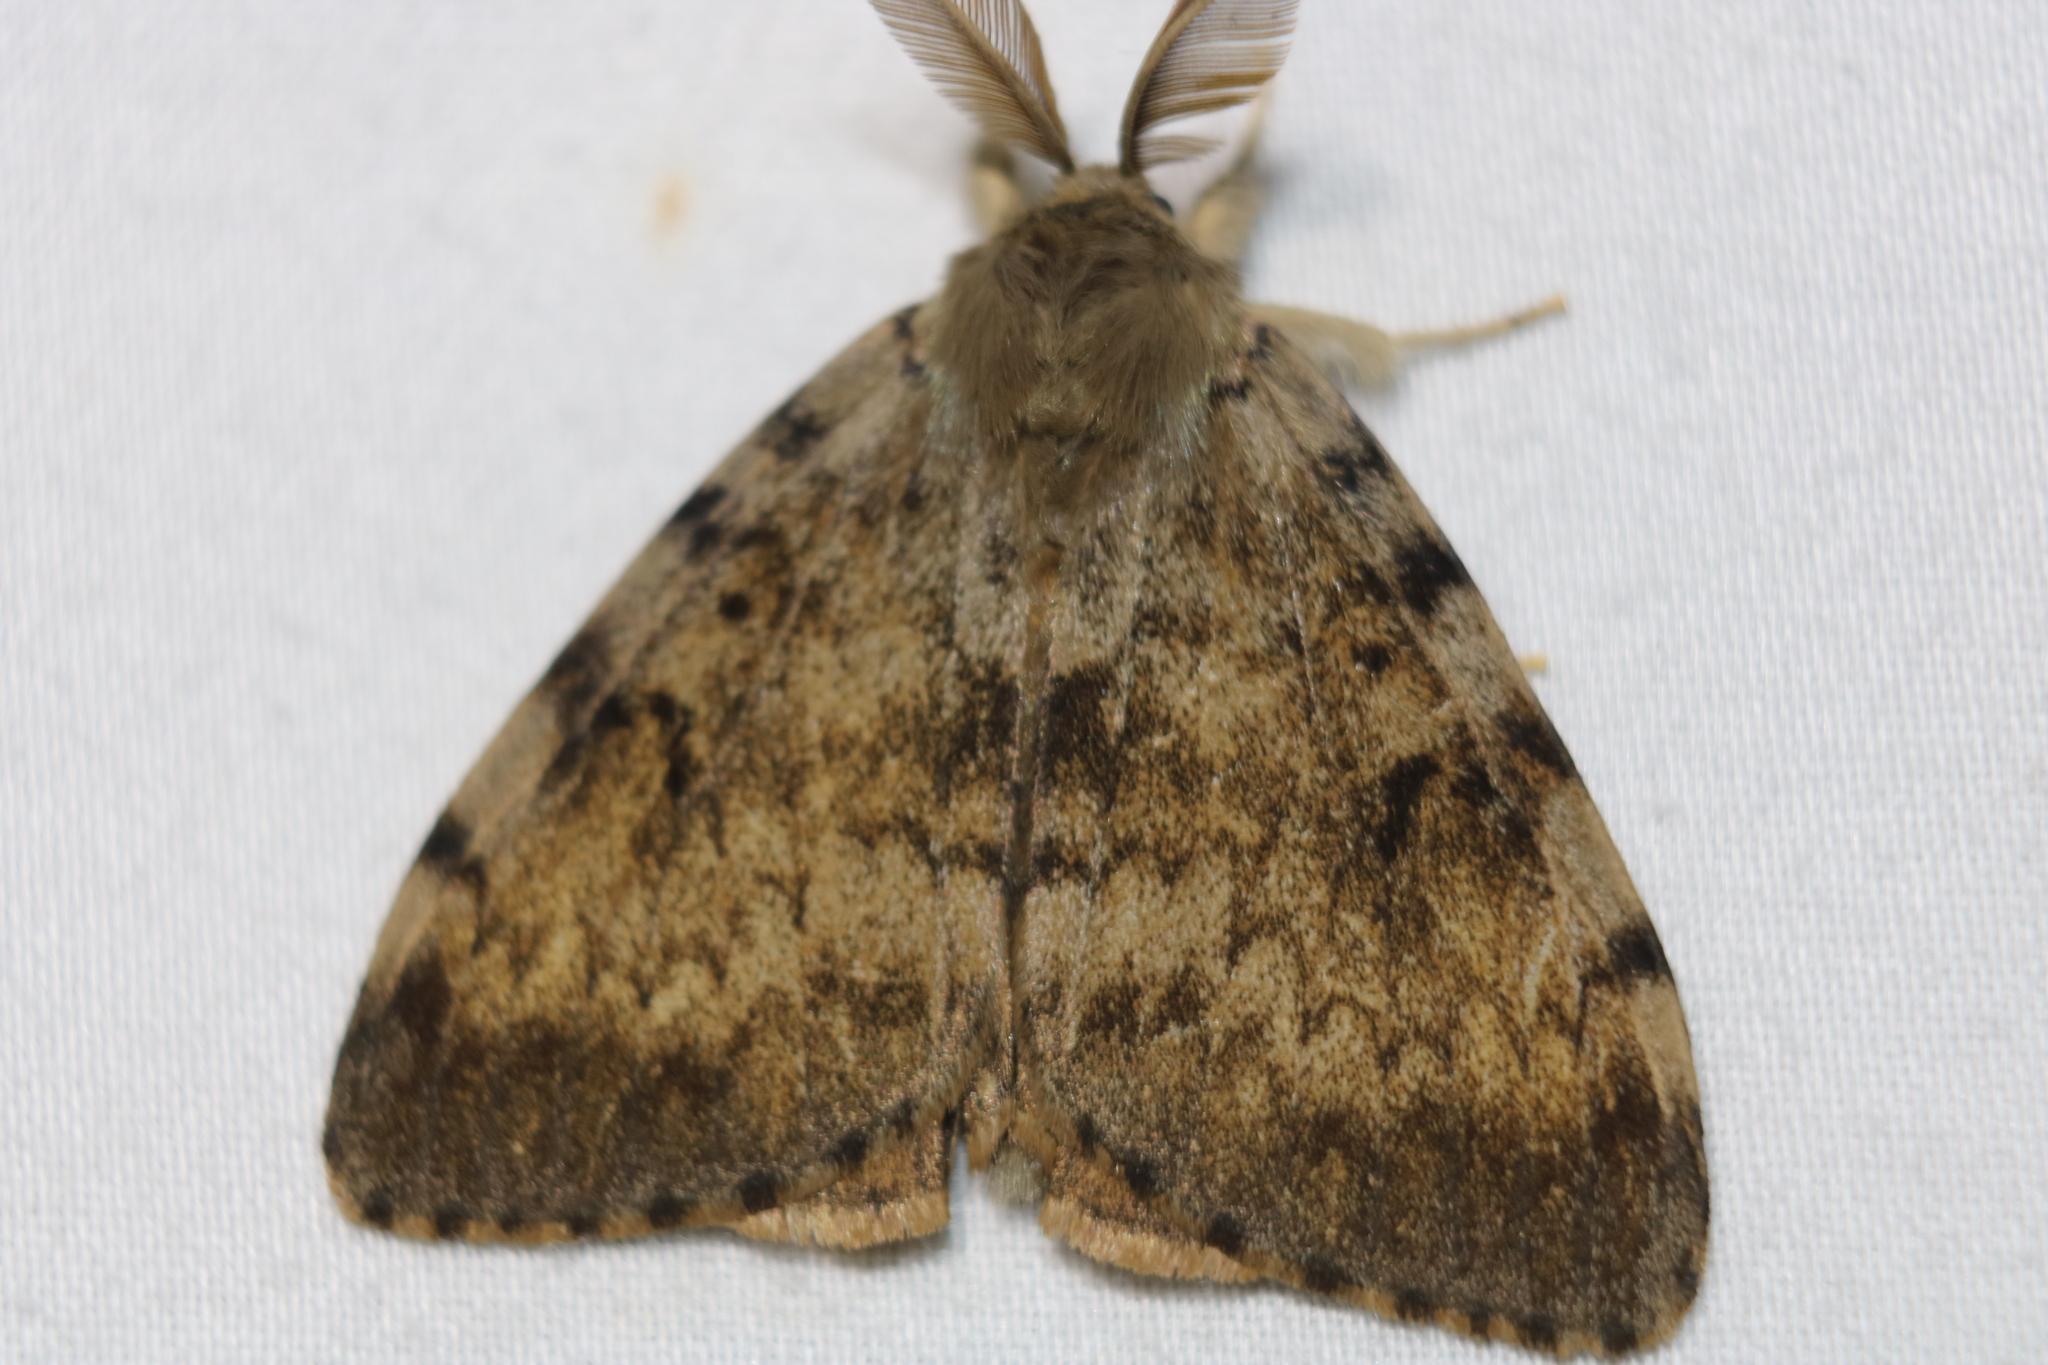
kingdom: Animalia
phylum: Arthropoda
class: Insecta
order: Lepidoptera
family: Erebidae
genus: Lymantria
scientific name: Lymantria dispar
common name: Gypsy moth
